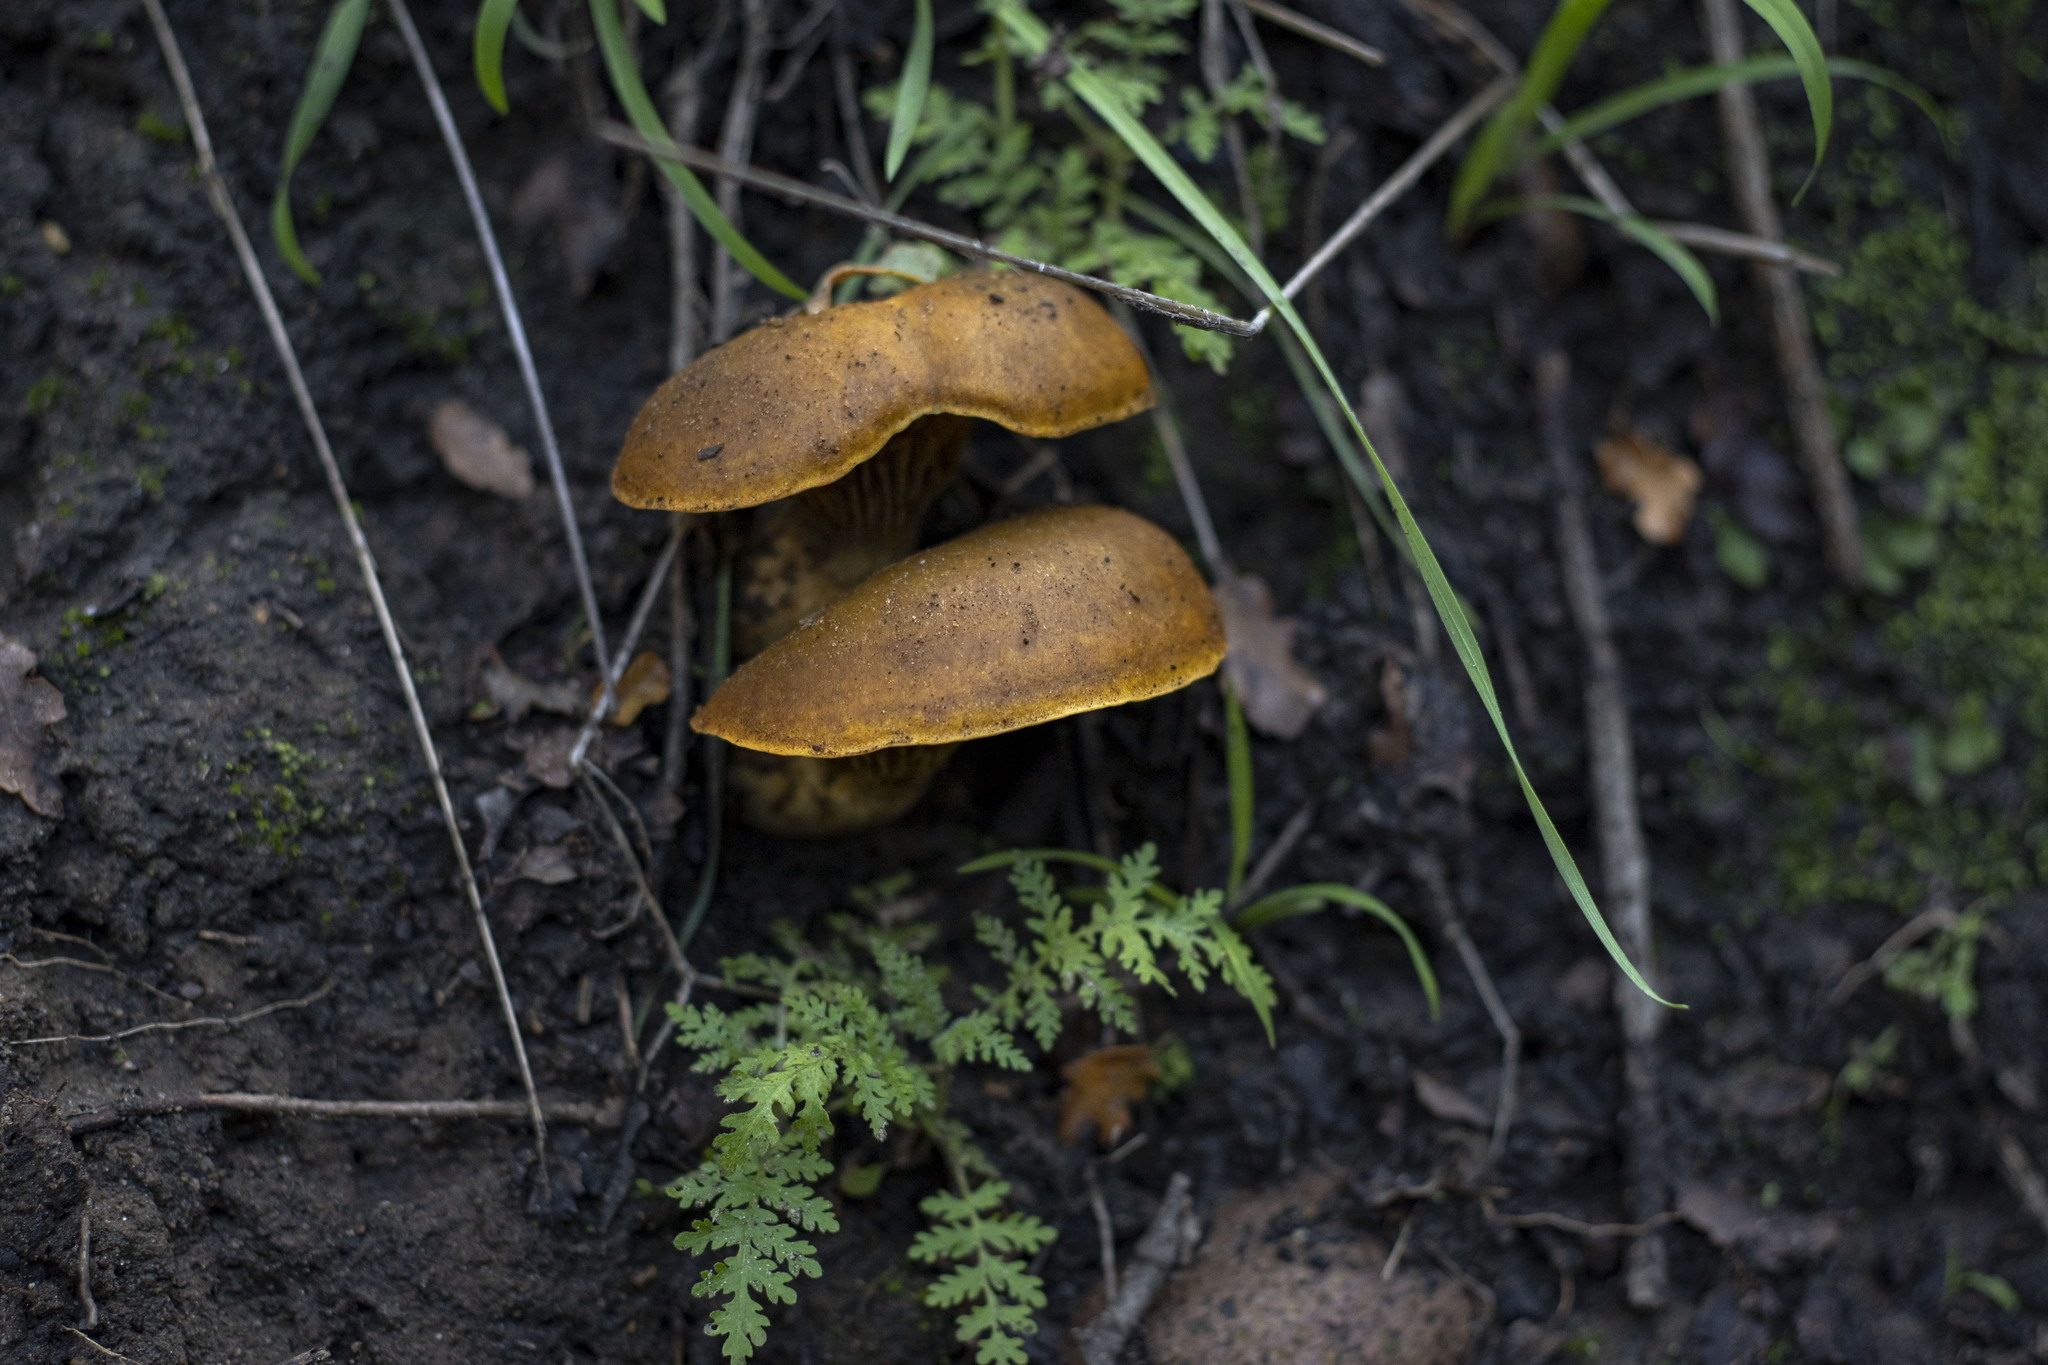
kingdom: Fungi
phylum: Basidiomycota
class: Agaricomycetes
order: Agaricales
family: Omphalotaceae
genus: Omphalotus
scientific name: Omphalotus olivascens
